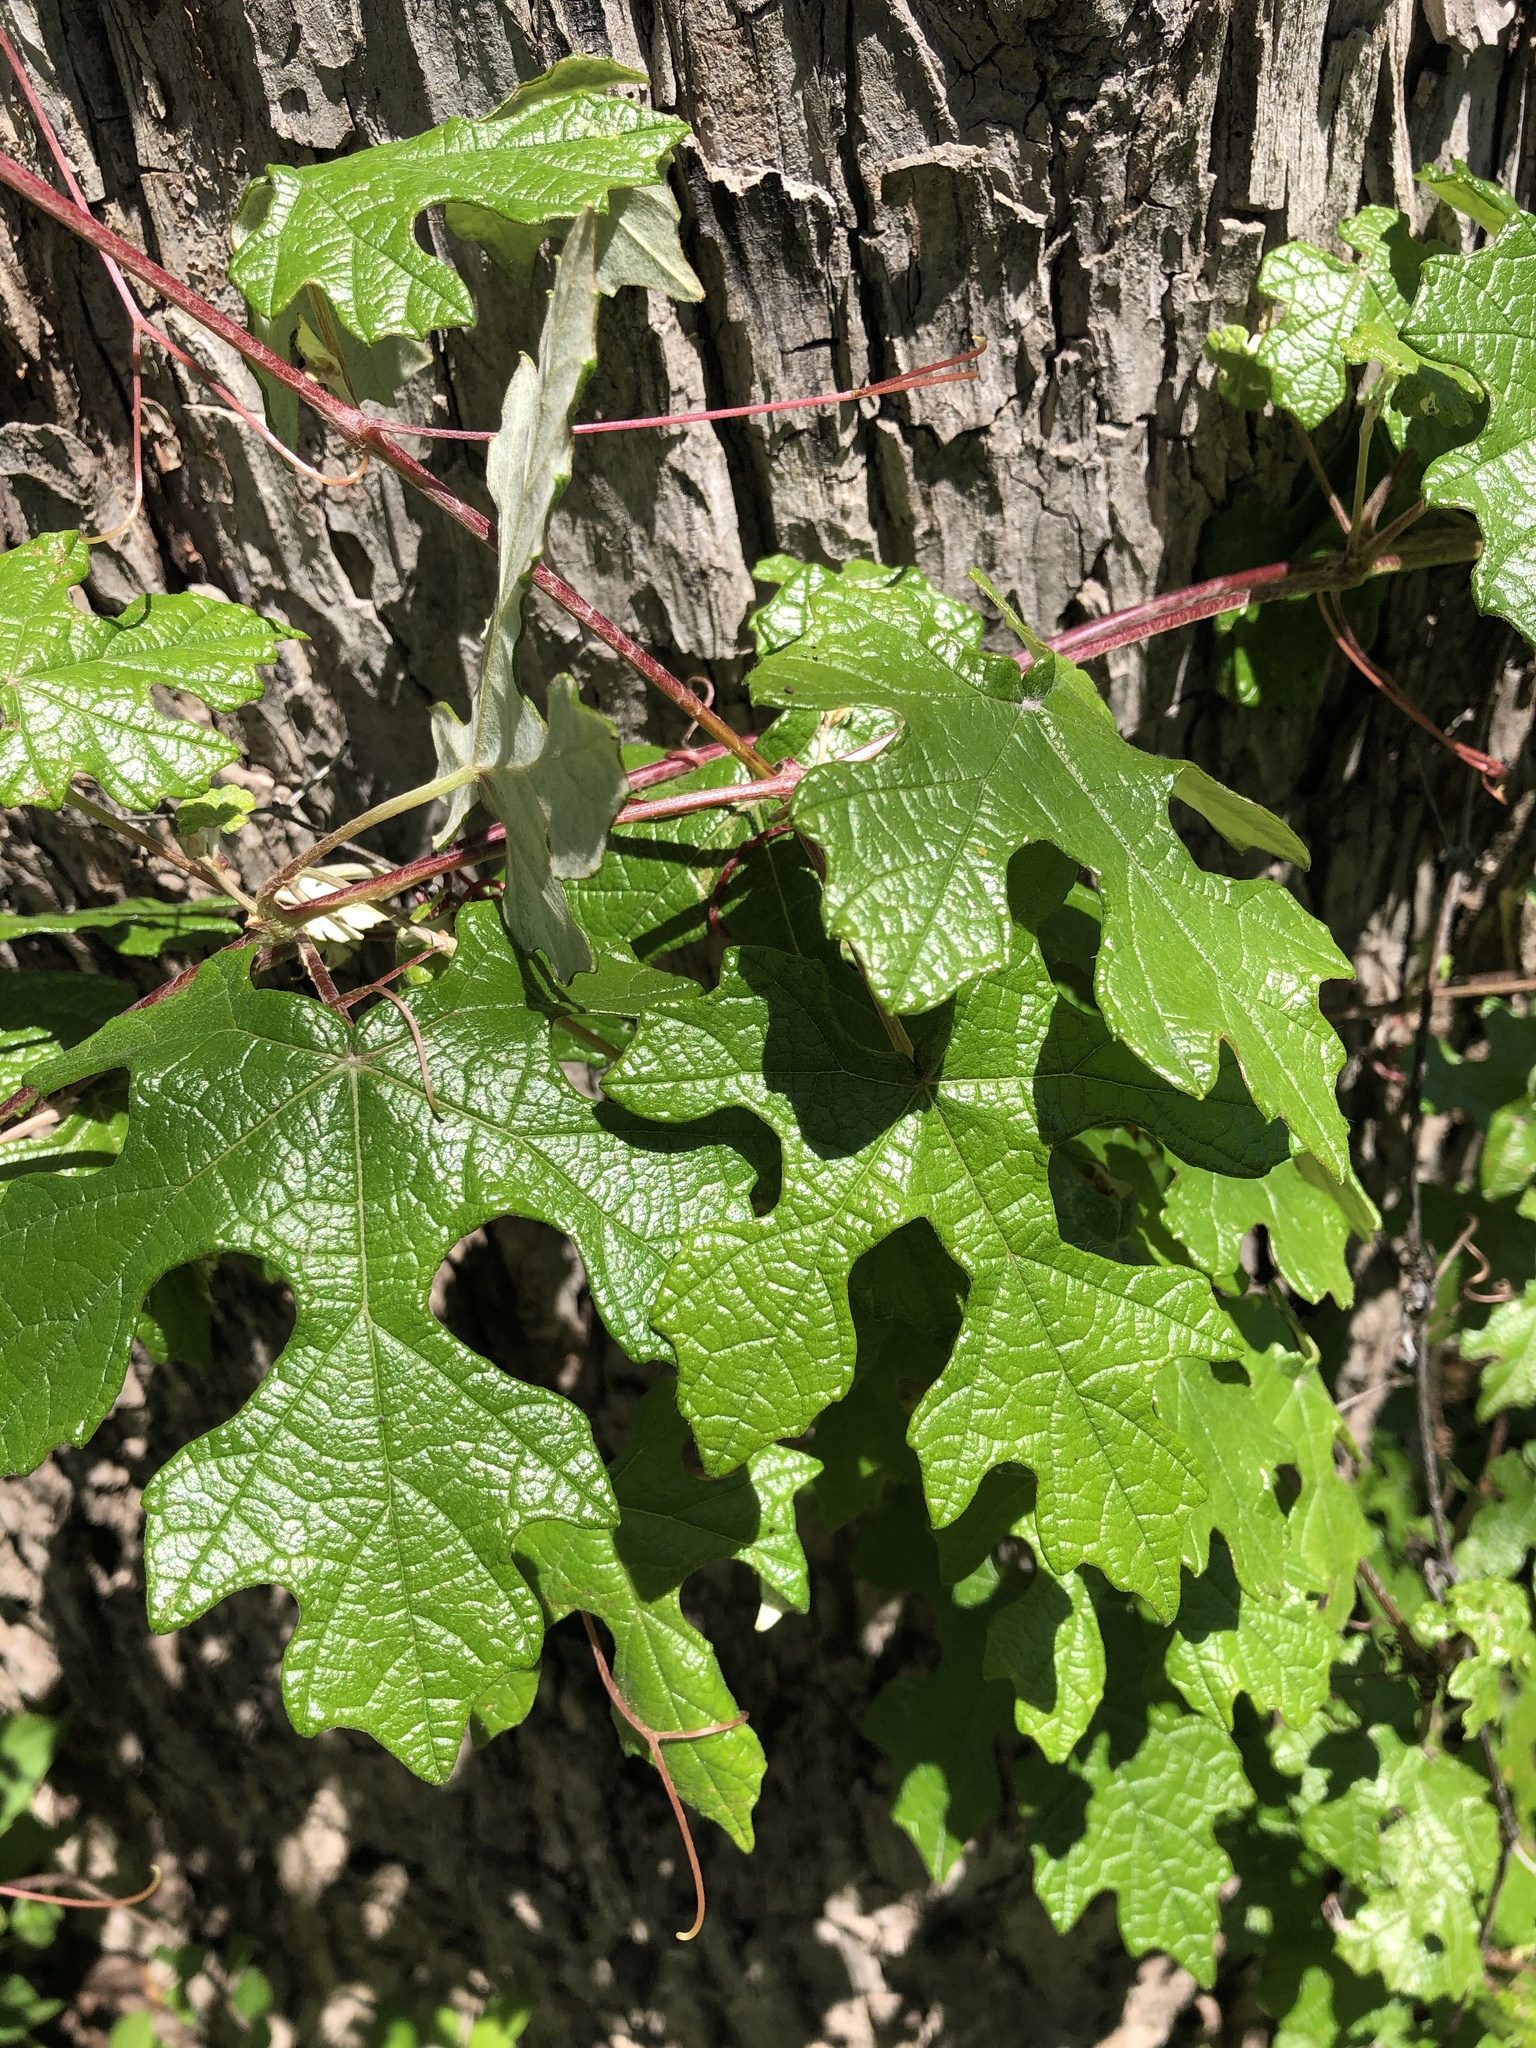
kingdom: Plantae
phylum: Tracheophyta
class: Magnoliopsida
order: Vitales
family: Vitaceae
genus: Vitis
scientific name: Vitis mustangensis
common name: Mustang grape
